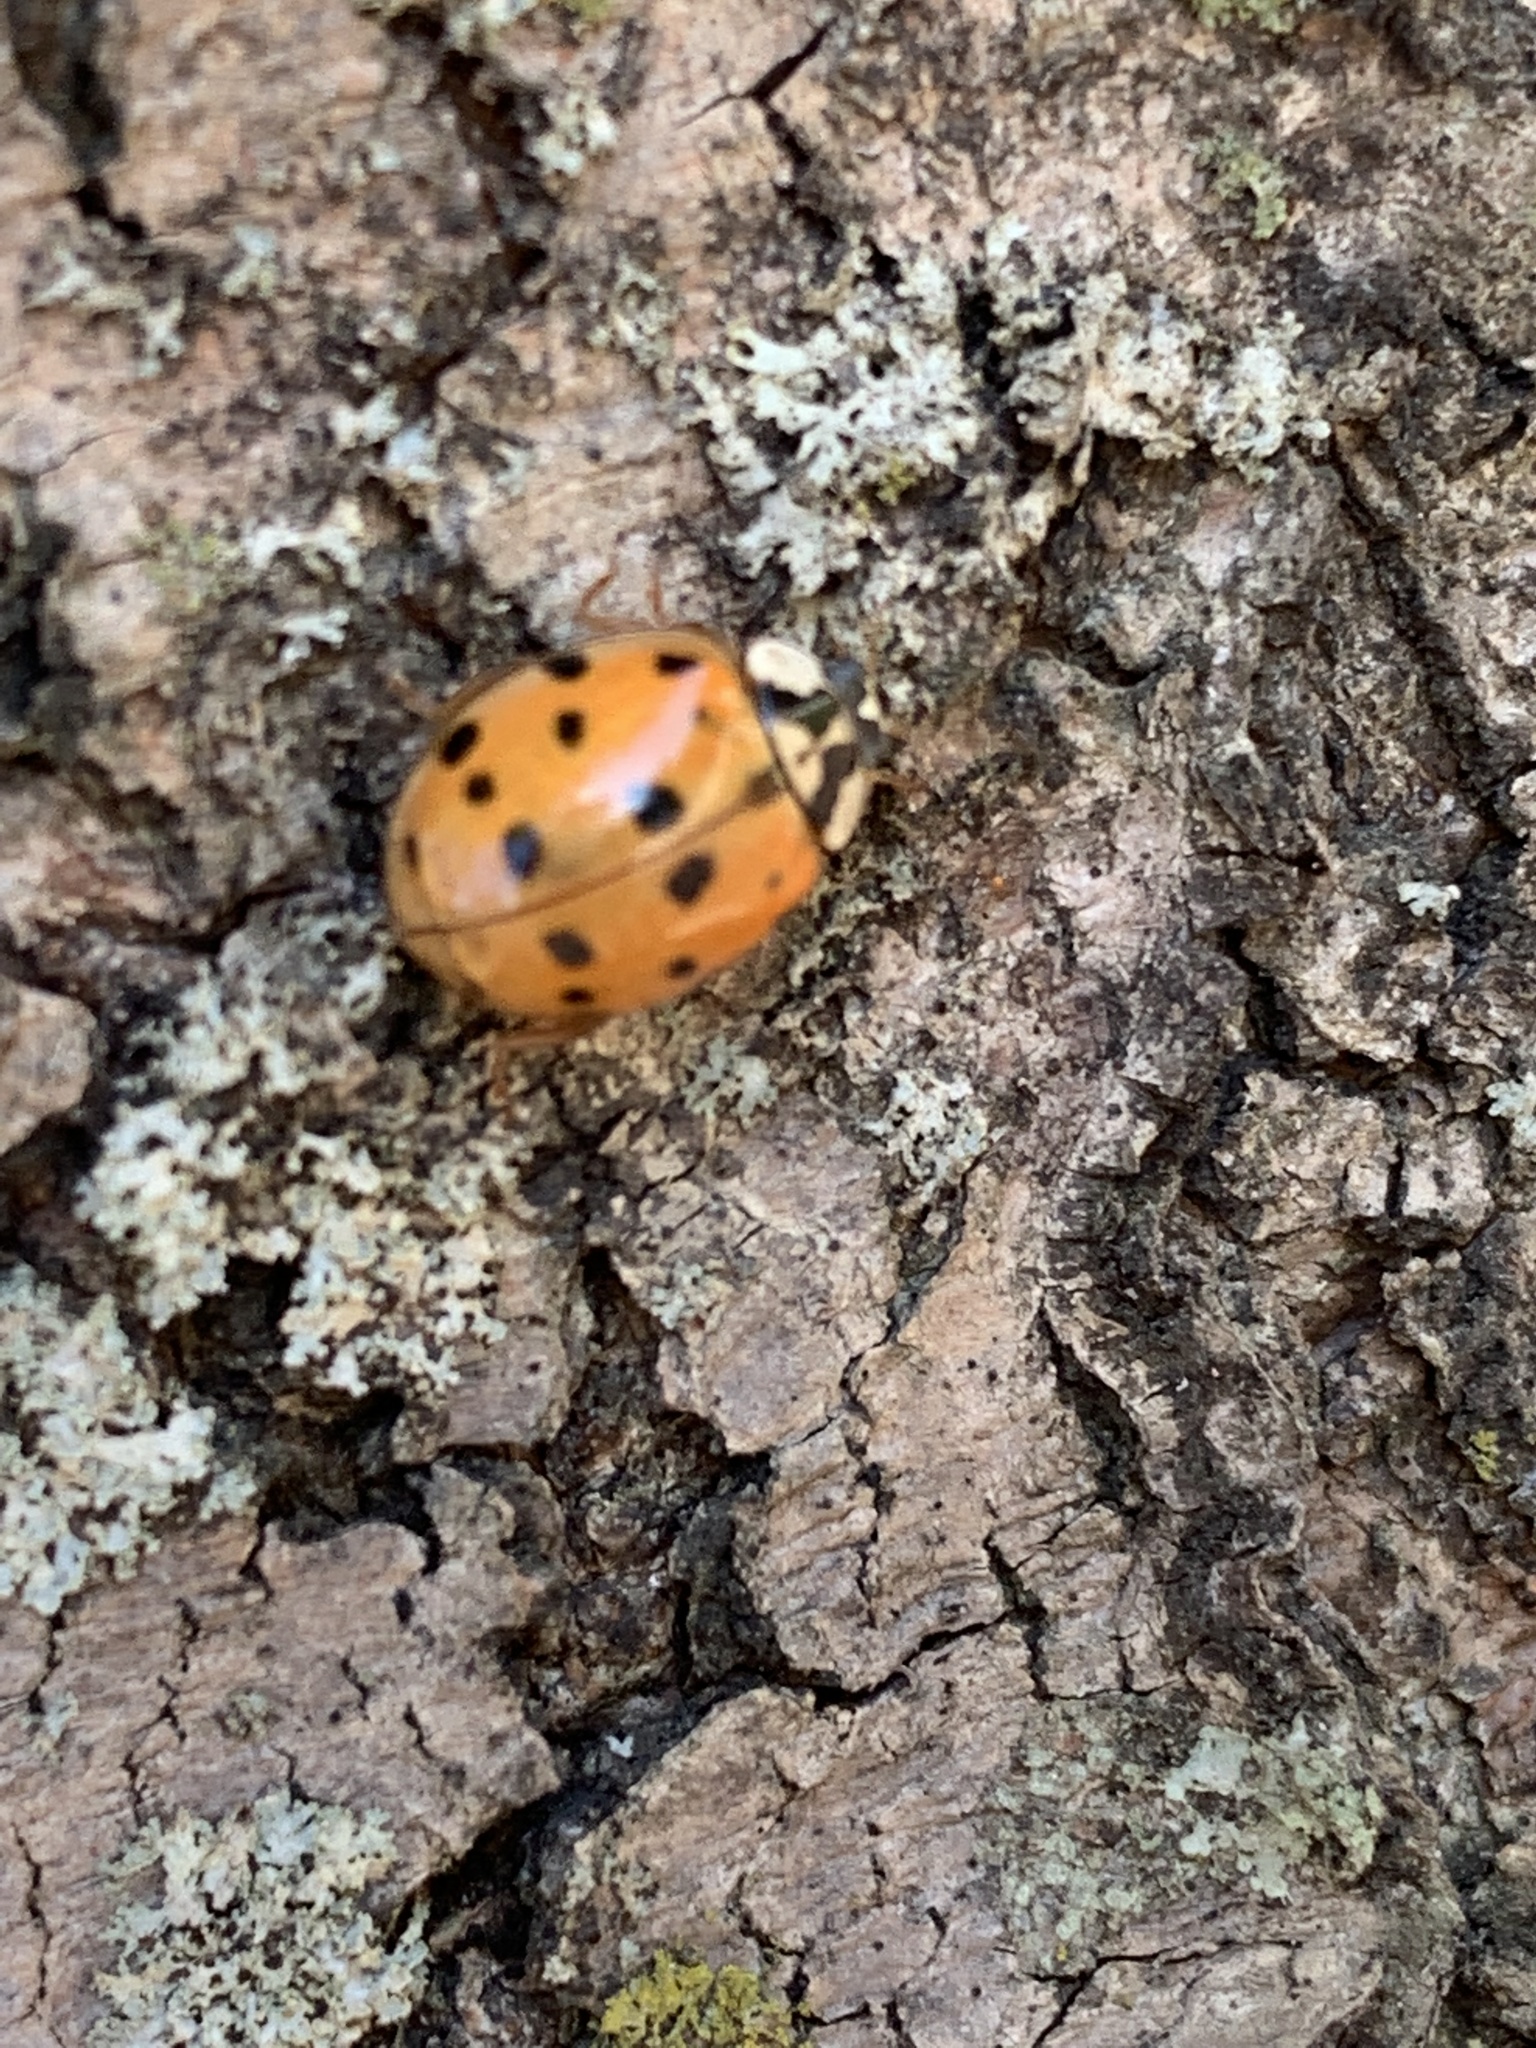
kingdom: Animalia
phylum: Arthropoda
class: Insecta
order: Coleoptera
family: Coccinellidae
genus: Harmonia
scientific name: Harmonia axyridis
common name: Harlequin ladybird
